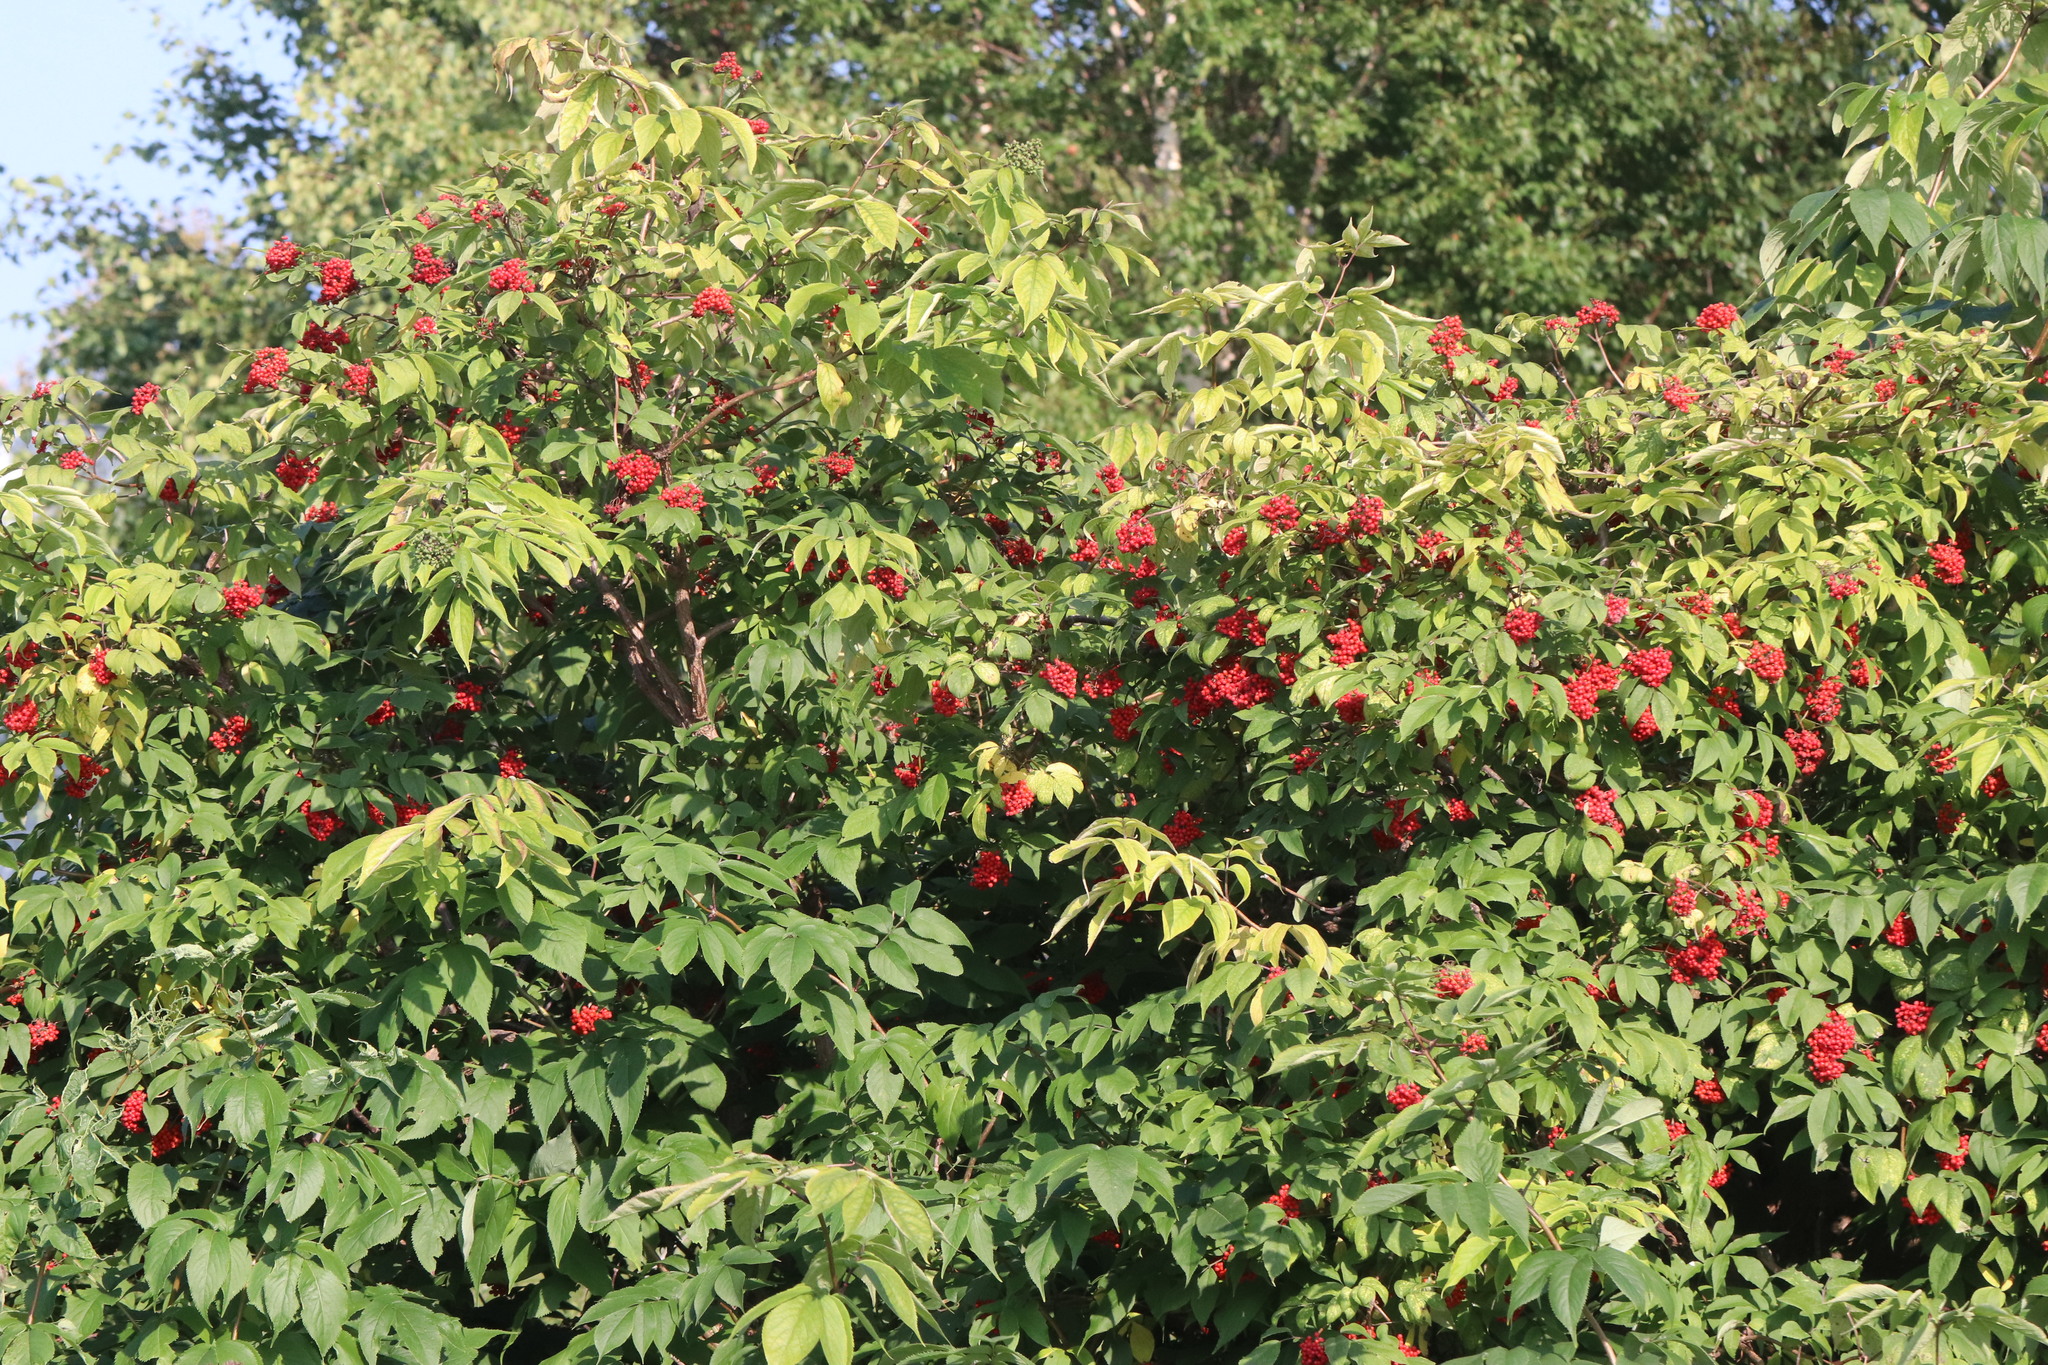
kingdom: Plantae
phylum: Tracheophyta
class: Magnoliopsida
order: Dipsacales
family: Viburnaceae
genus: Sambucus
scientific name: Sambucus sibirica
